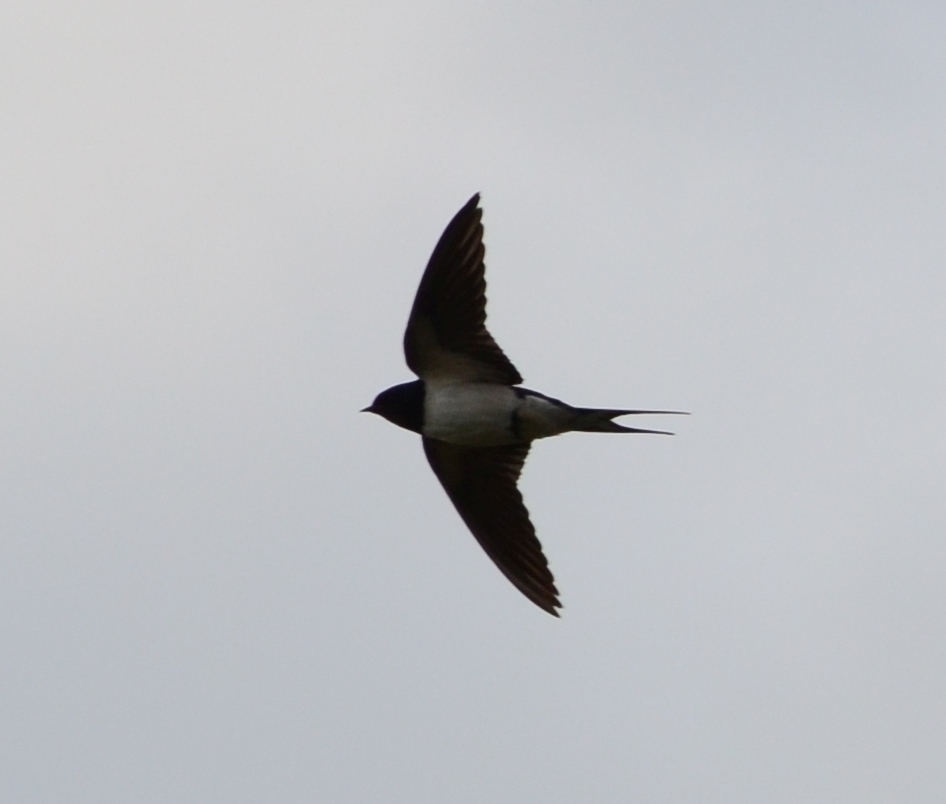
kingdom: Animalia
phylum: Chordata
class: Aves
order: Passeriformes
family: Hirundinidae
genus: Hirundo
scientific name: Hirundo rustica
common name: Barn swallow
